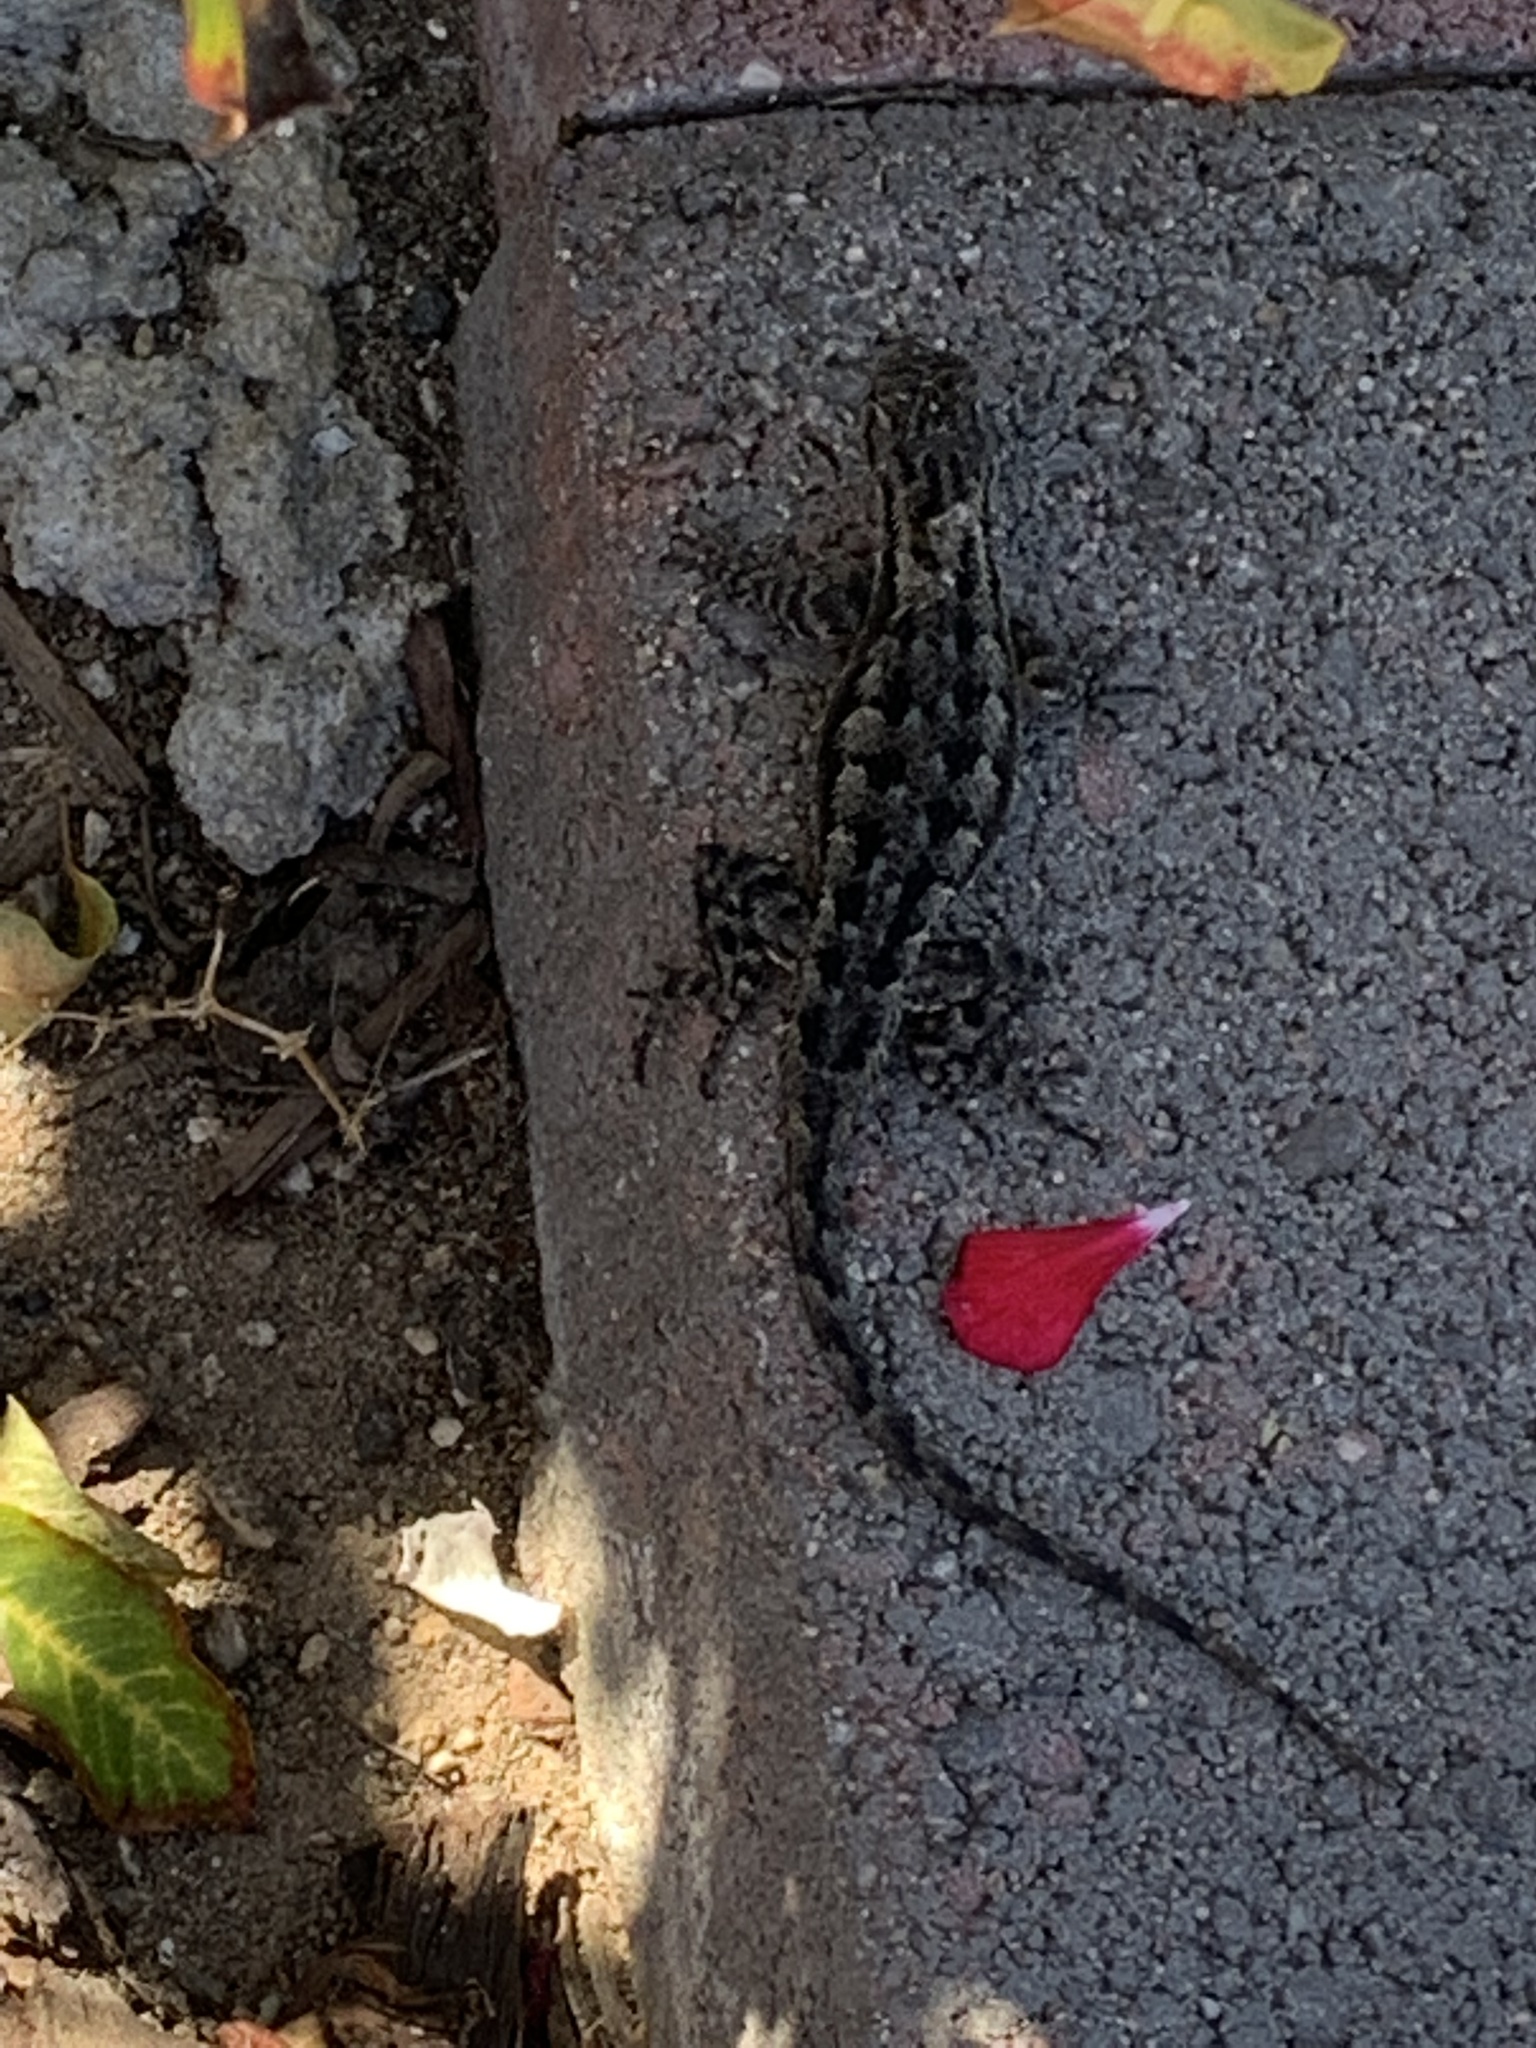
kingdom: Animalia
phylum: Chordata
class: Squamata
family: Phrynosomatidae
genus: Sceloporus
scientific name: Sceloporus occidentalis
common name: Western fence lizard
